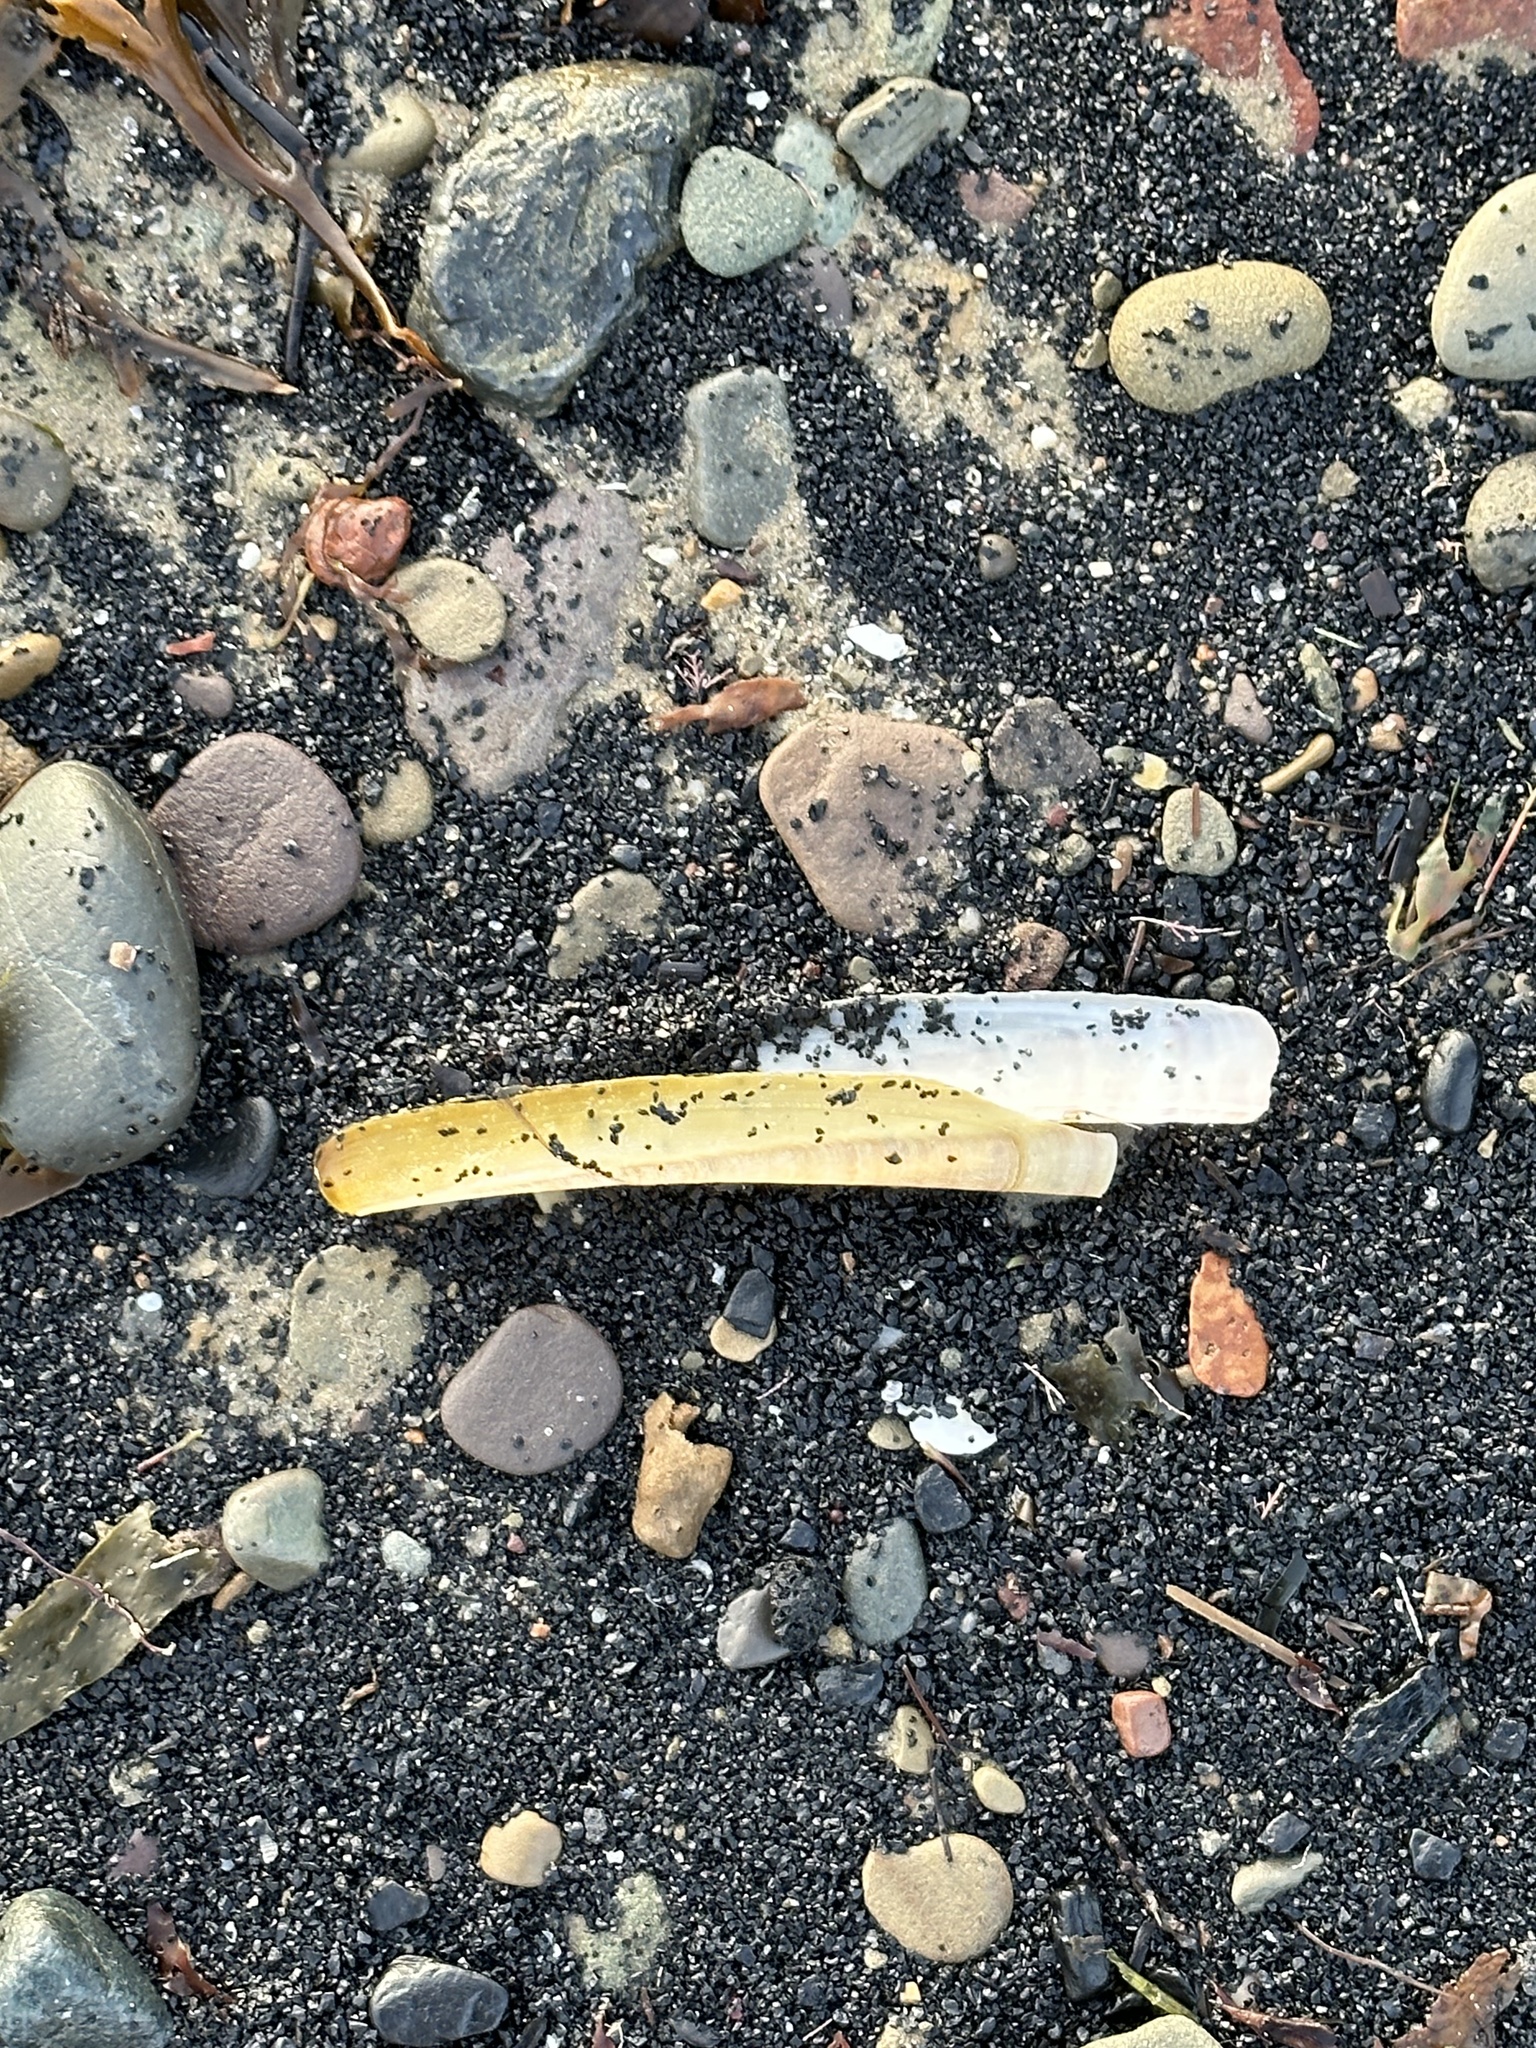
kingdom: Animalia
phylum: Mollusca
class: Bivalvia
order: Adapedonta
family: Pharidae
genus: Ensis
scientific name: Ensis leei
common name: American jack knife clam
